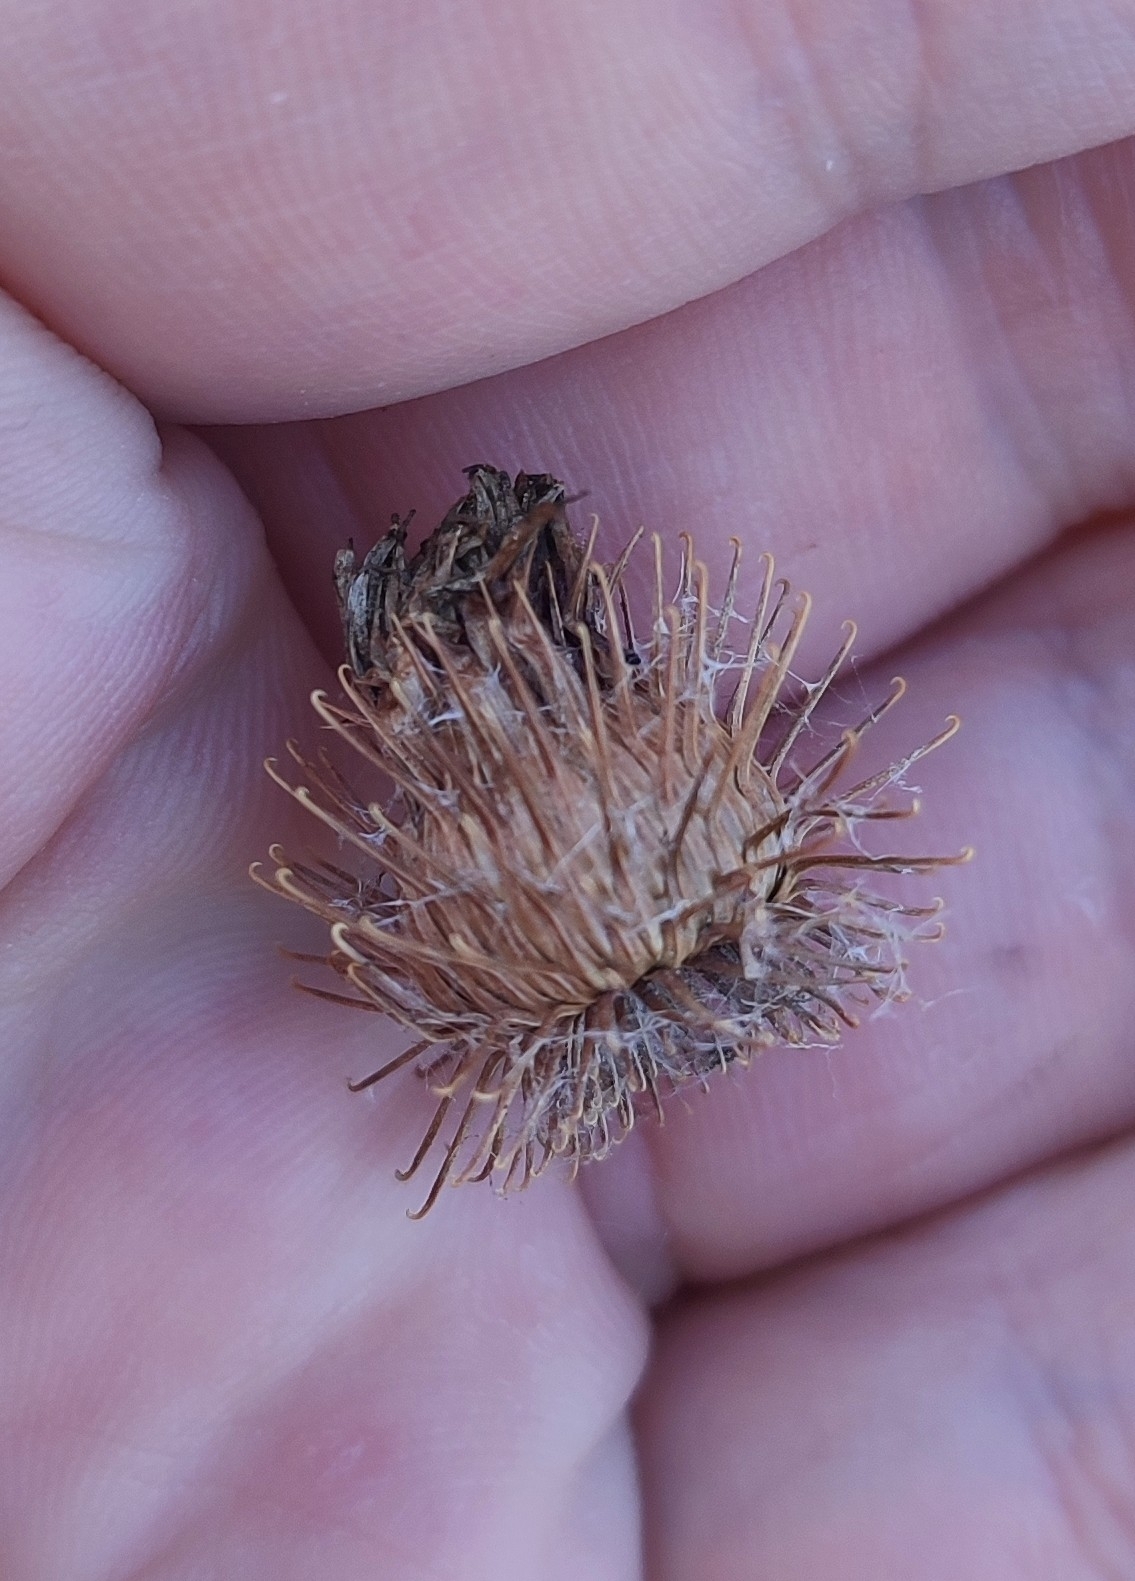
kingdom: Plantae
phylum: Tracheophyta
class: Magnoliopsida
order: Asterales
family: Asteraceae
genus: Arctium
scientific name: Arctium tomentosum
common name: Woolly burdock
